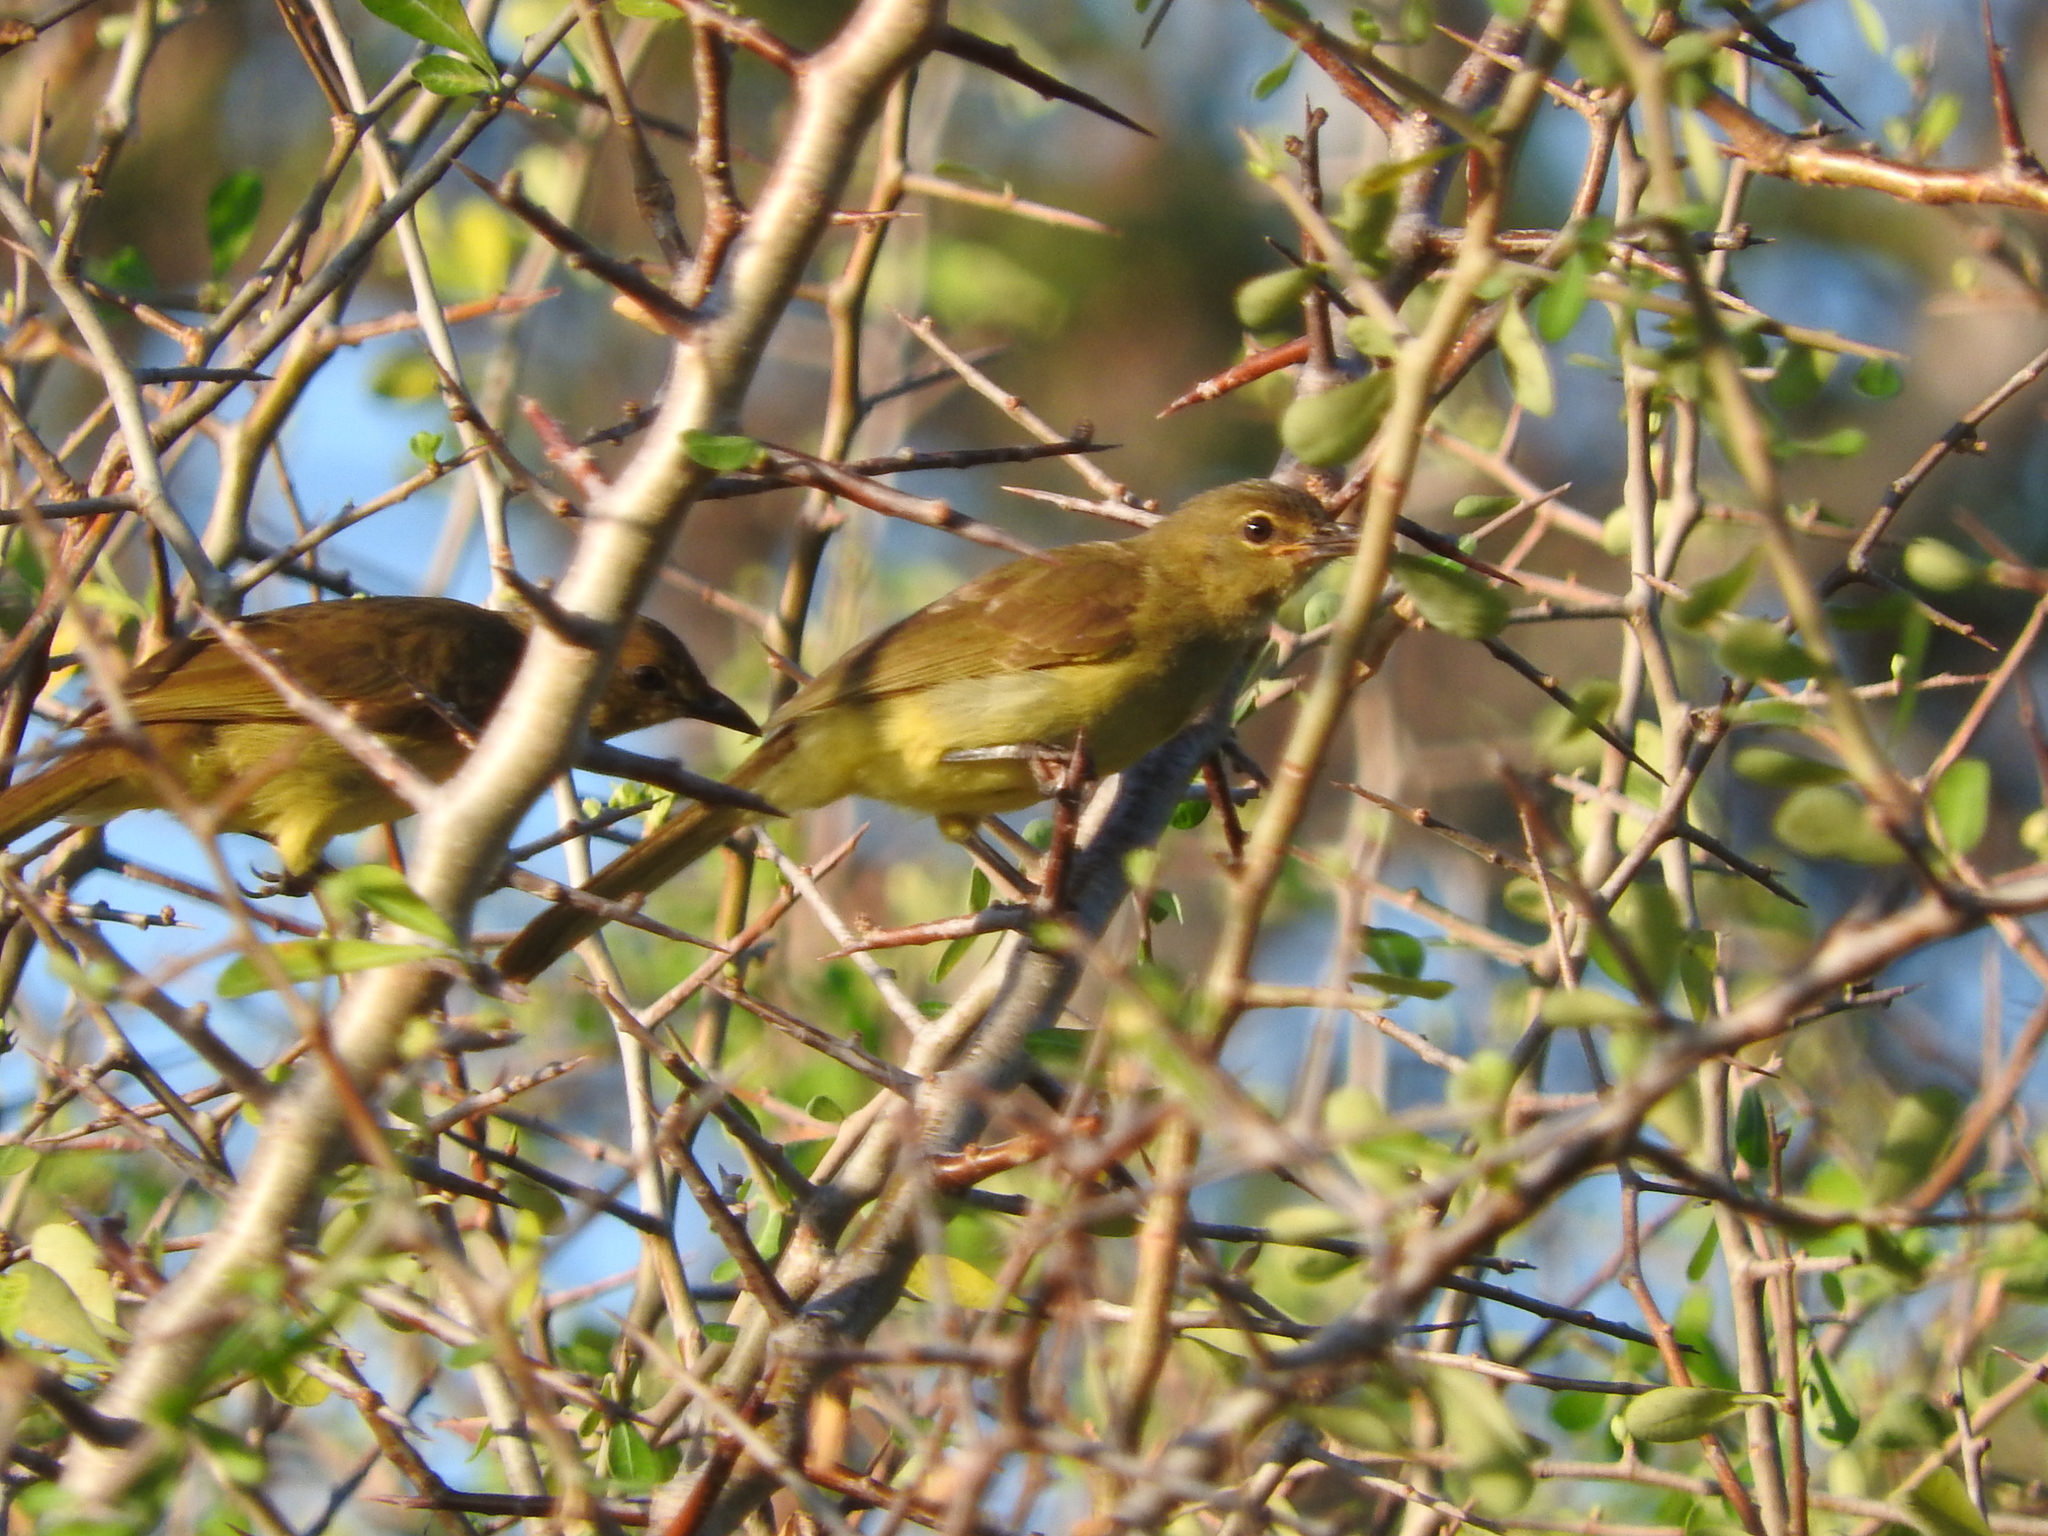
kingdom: Animalia
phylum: Chordata
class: Aves
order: Passeriformes
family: Pycnonotidae
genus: Chlorocichla
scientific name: Chlorocichla flaviventris
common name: Yellow-bellied greenbul
